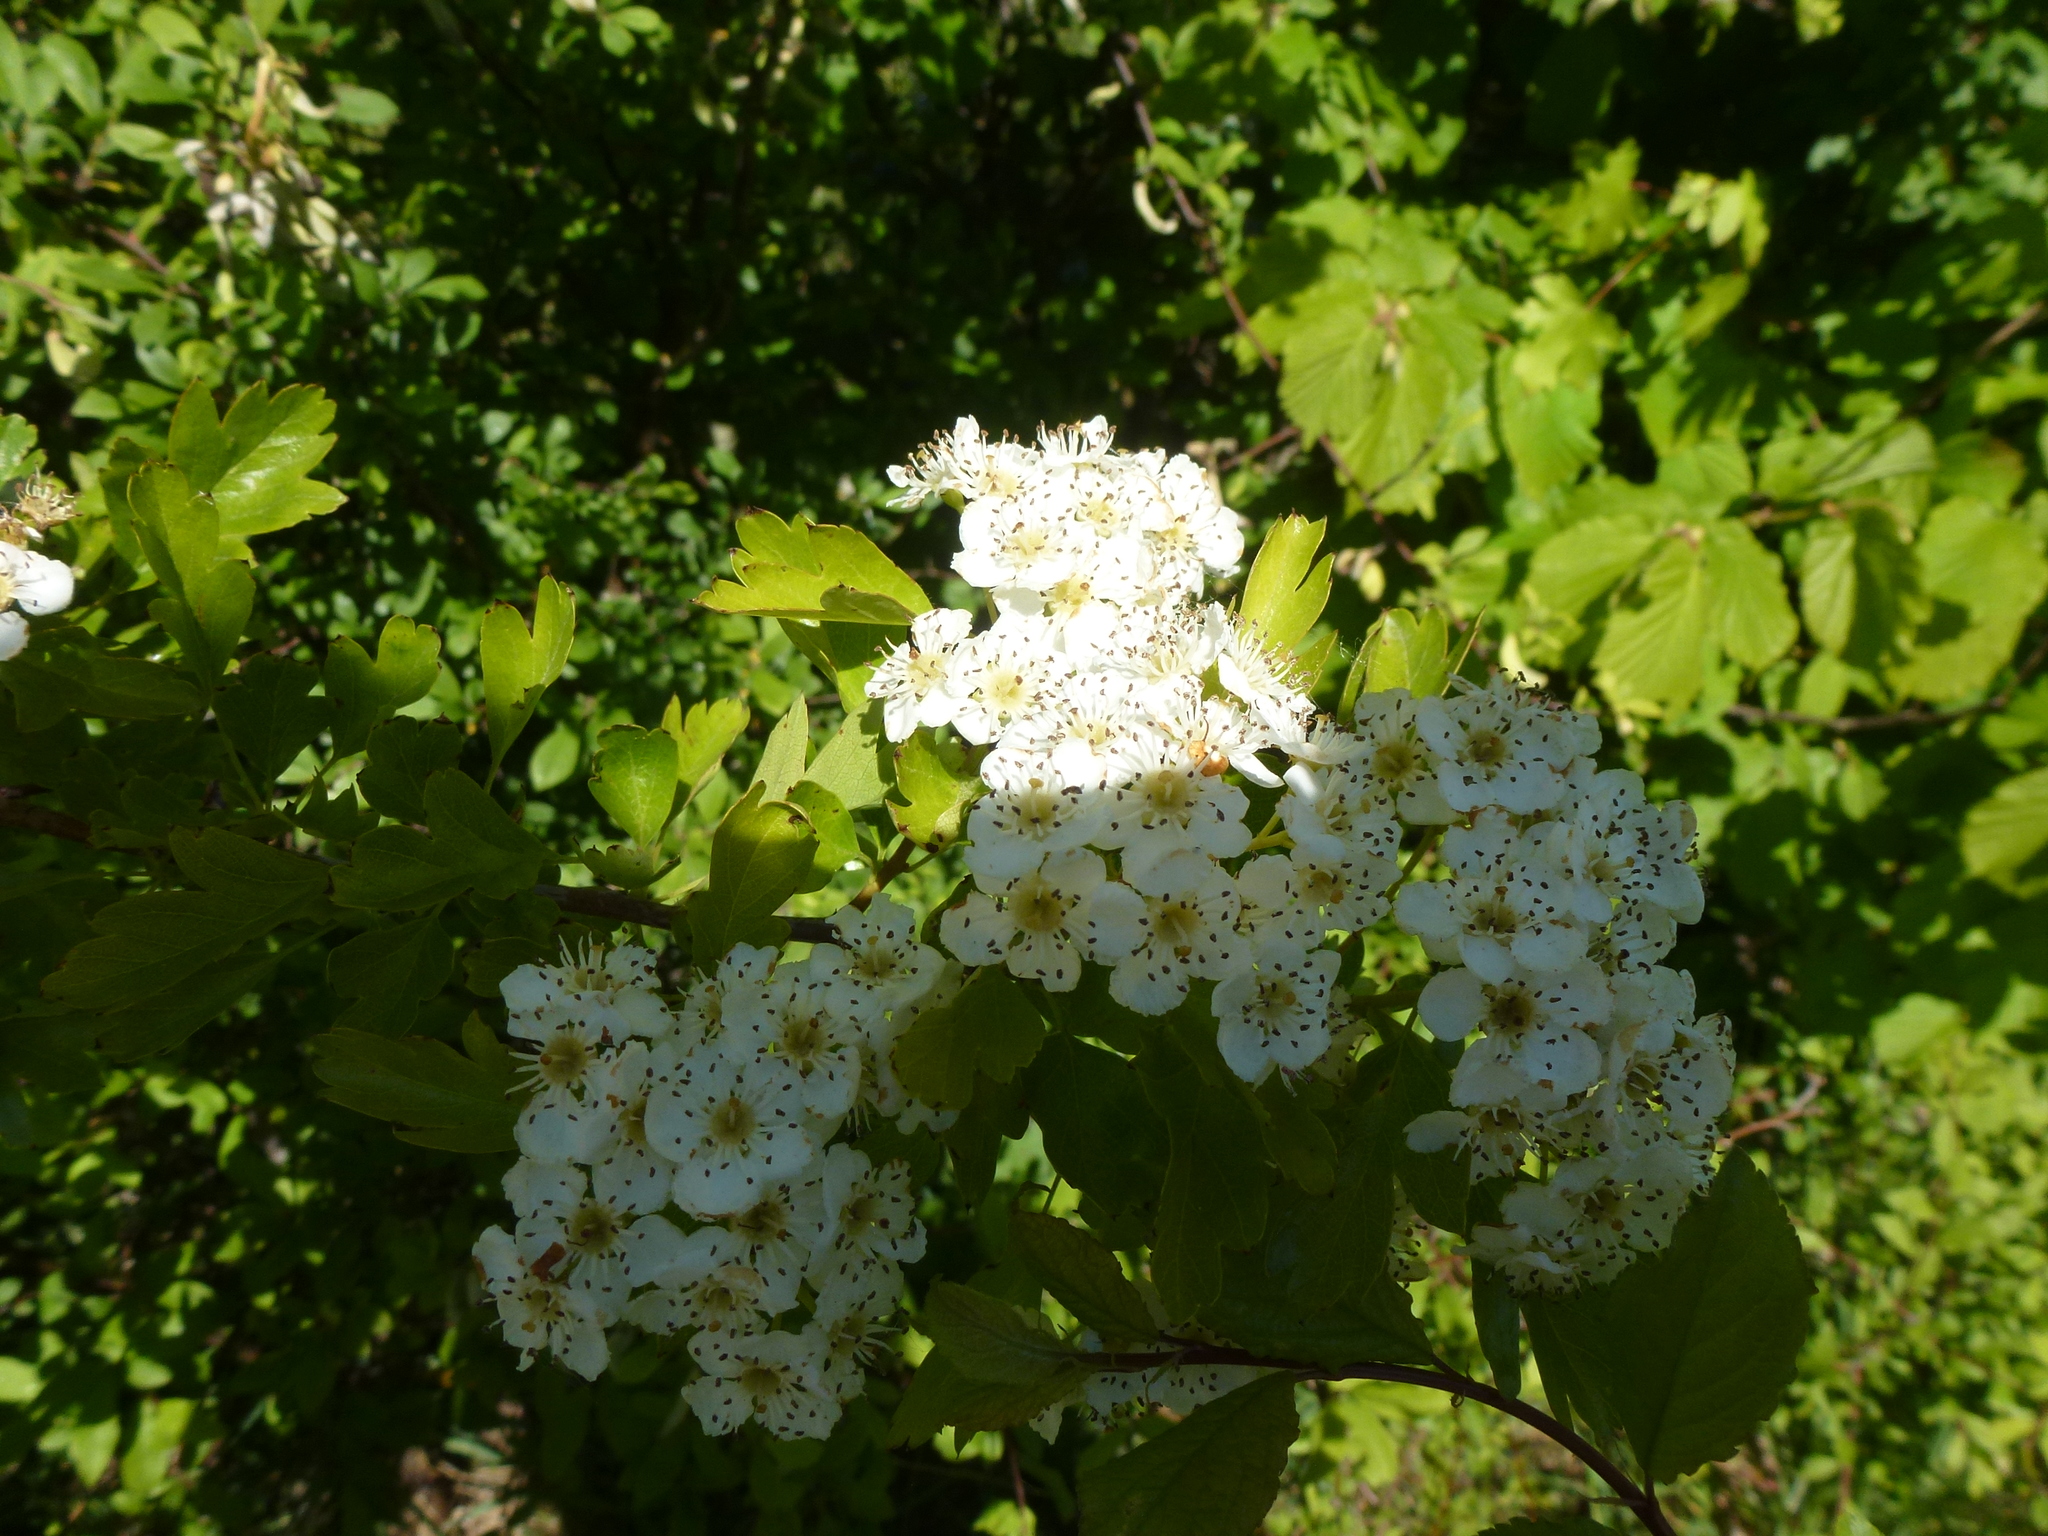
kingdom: Plantae
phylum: Tracheophyta
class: Magnoliopsida
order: Rosales
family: Rosaceae
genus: Crataegus
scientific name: Crataegus monogyna
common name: Hawthorn
